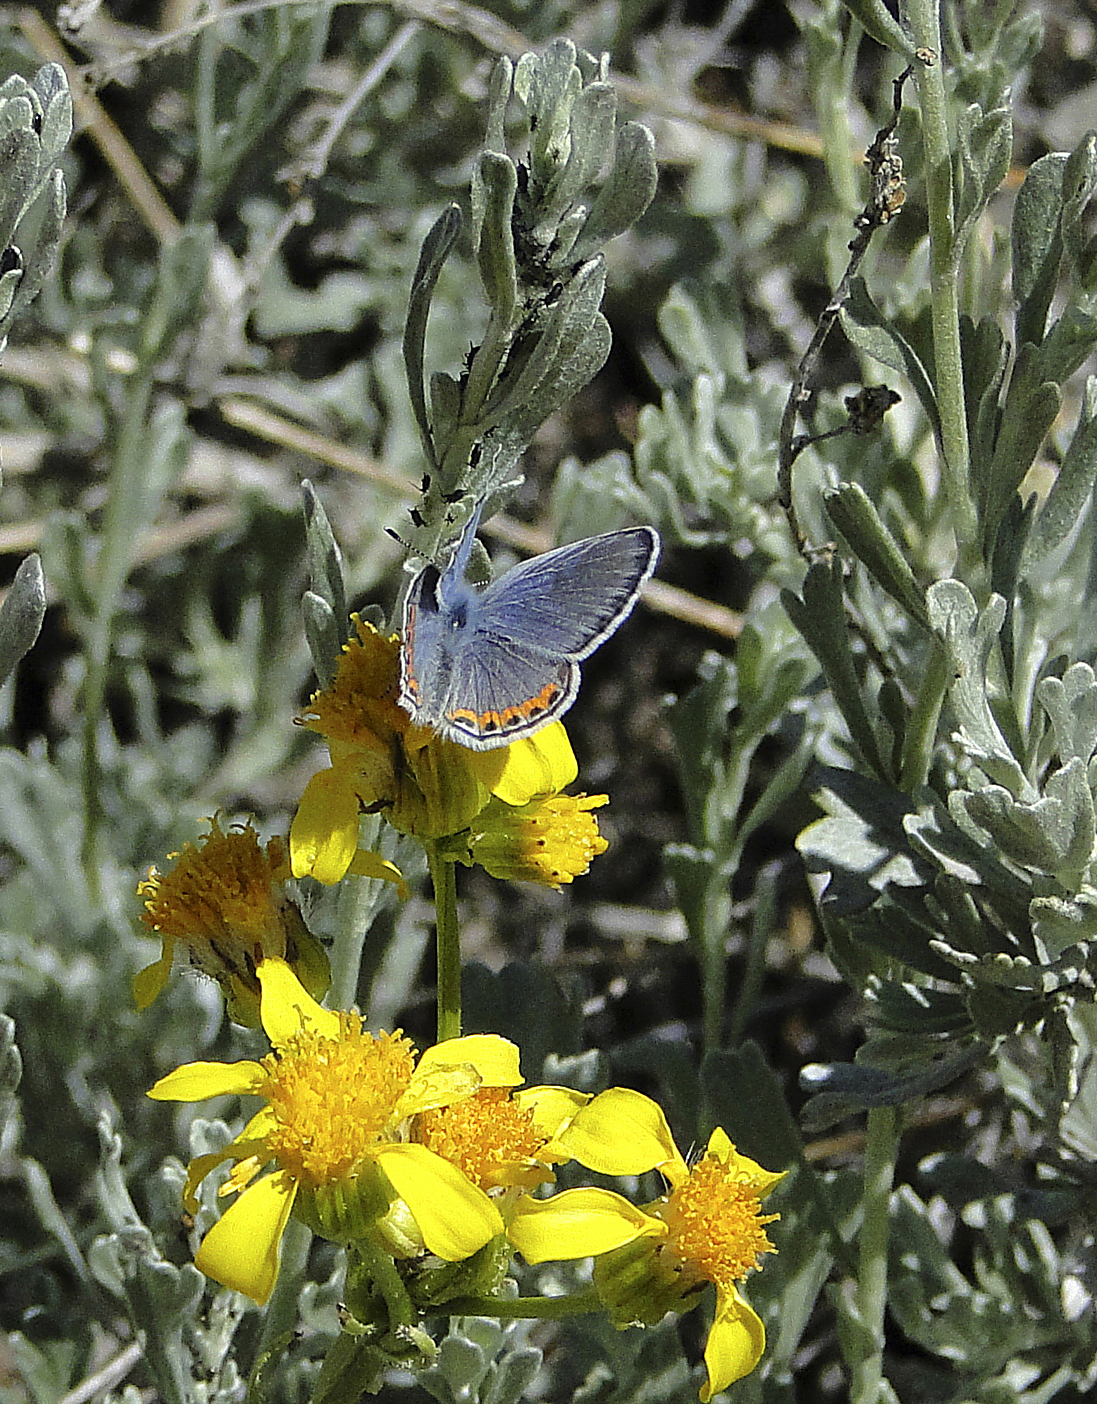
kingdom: Animalia
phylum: Arthropoda
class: Insecta
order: Lepidoptera
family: Lycaenidae
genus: Icaricia
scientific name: Icaricia acmon
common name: Acmon blue
